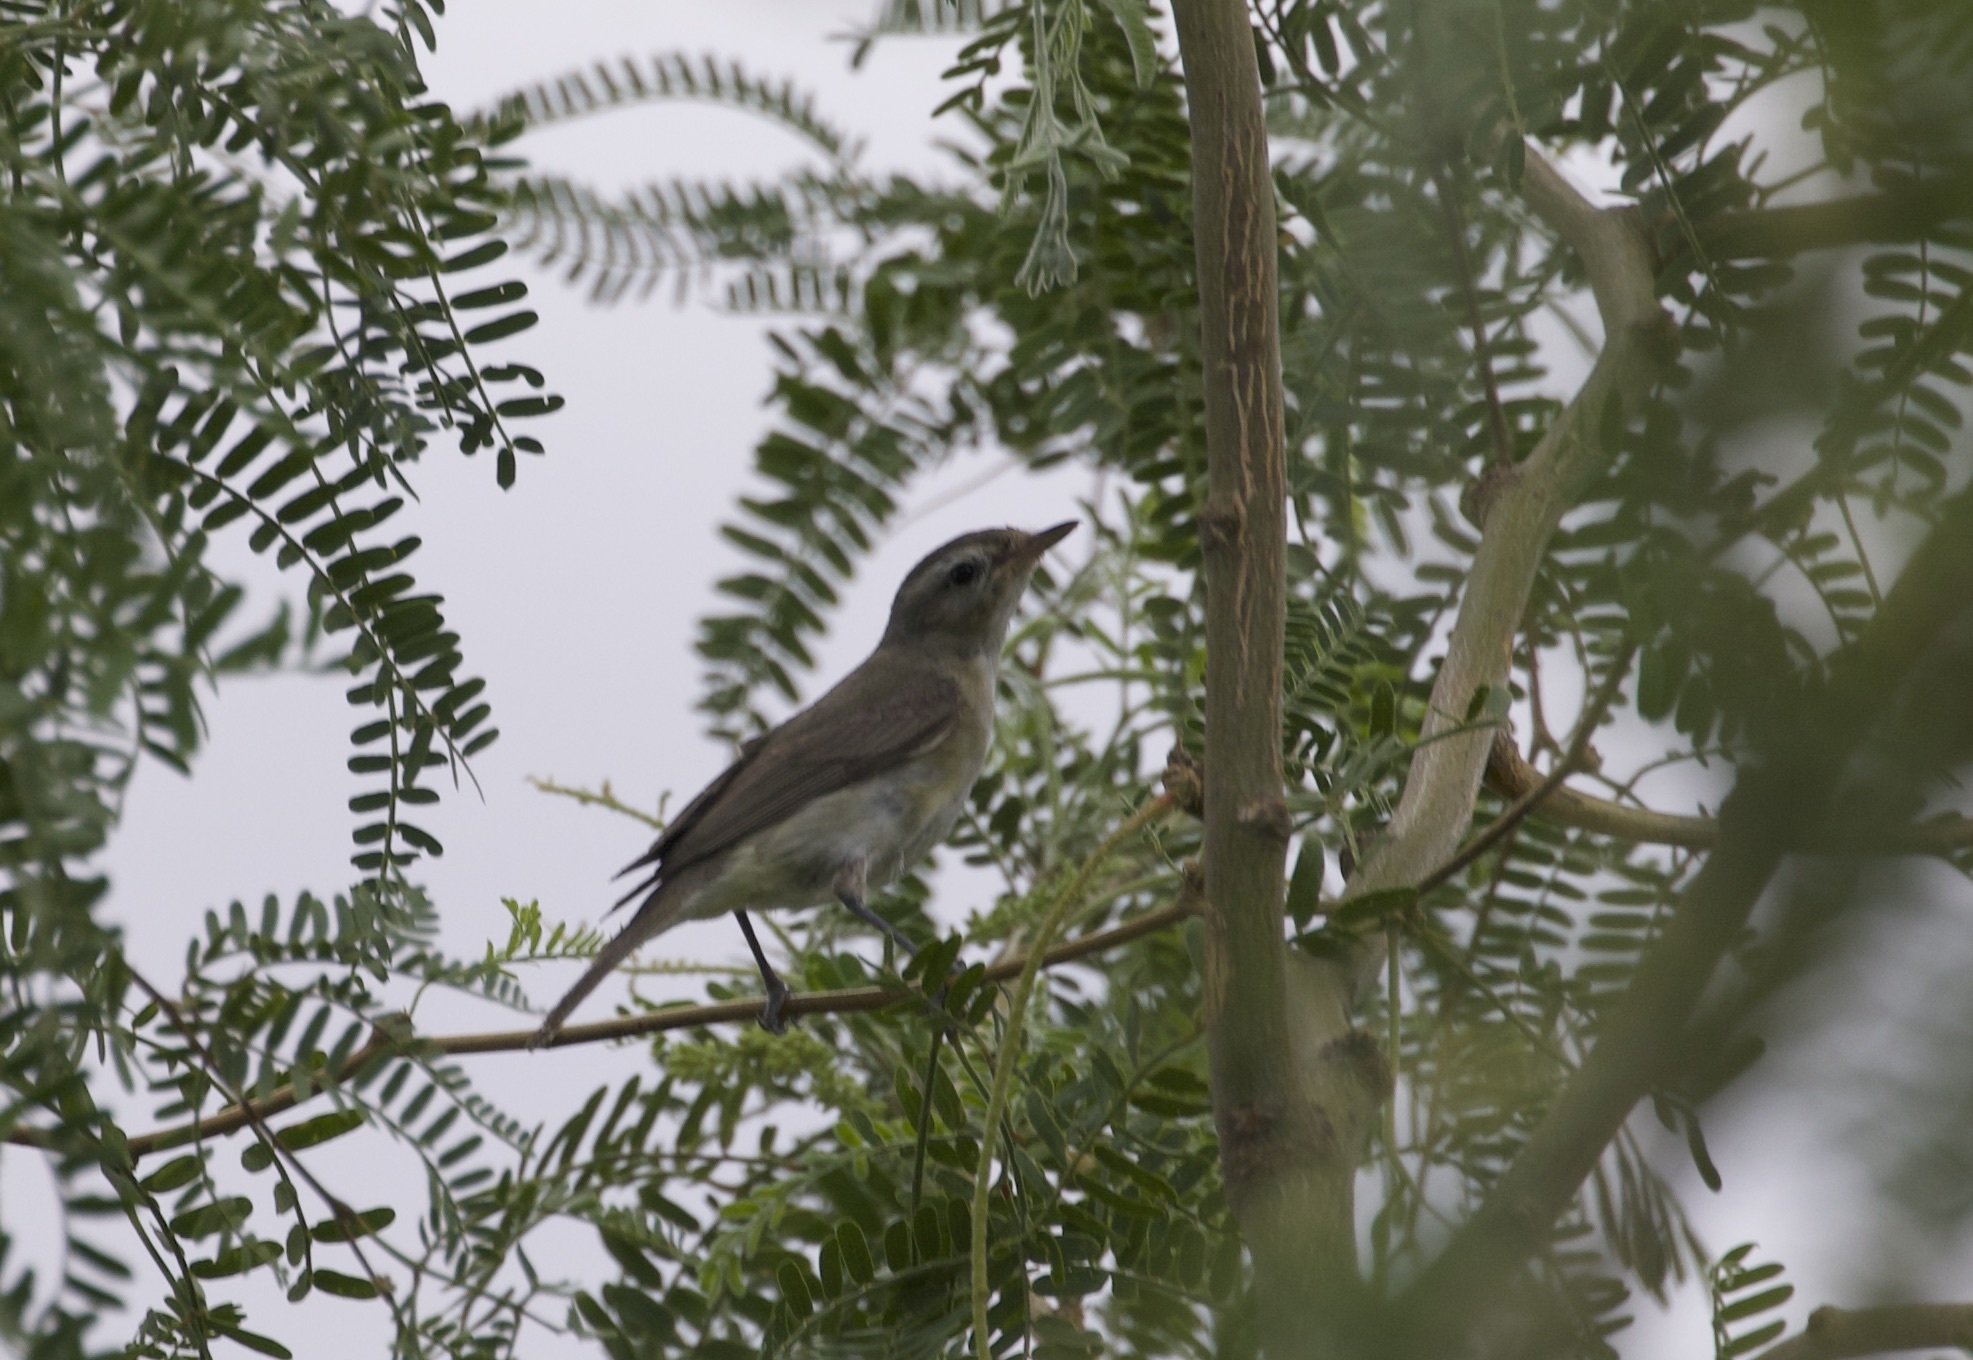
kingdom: Animalia
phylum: Chordata
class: Aves
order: Passeriformes
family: Vireonidae
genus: Vireo
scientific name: Vireo gilvus
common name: Warbling vireo
